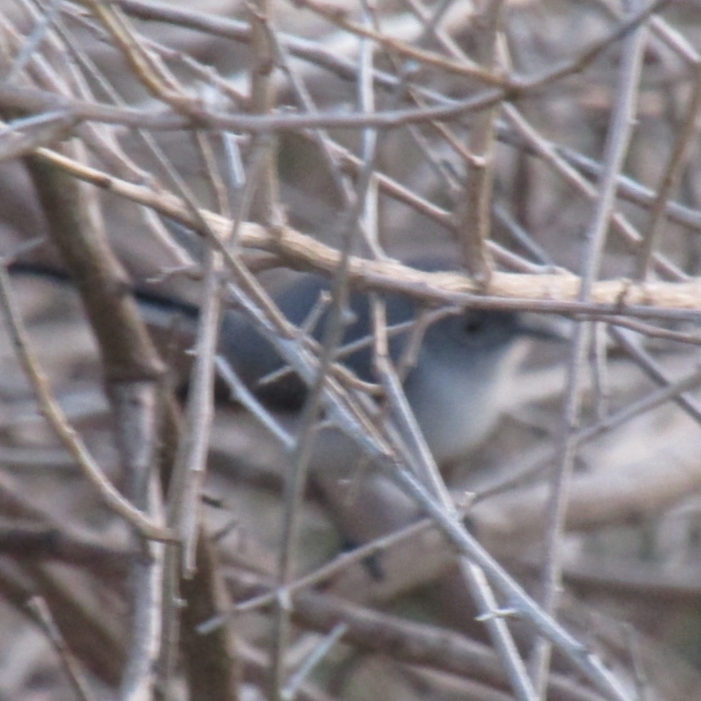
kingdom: Animalia
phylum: Chordata
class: Aves
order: Passeriformes
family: Polioptilidae
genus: Polioptila
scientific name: Polioptila caerulea
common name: Blue-gray gnatcatcher
